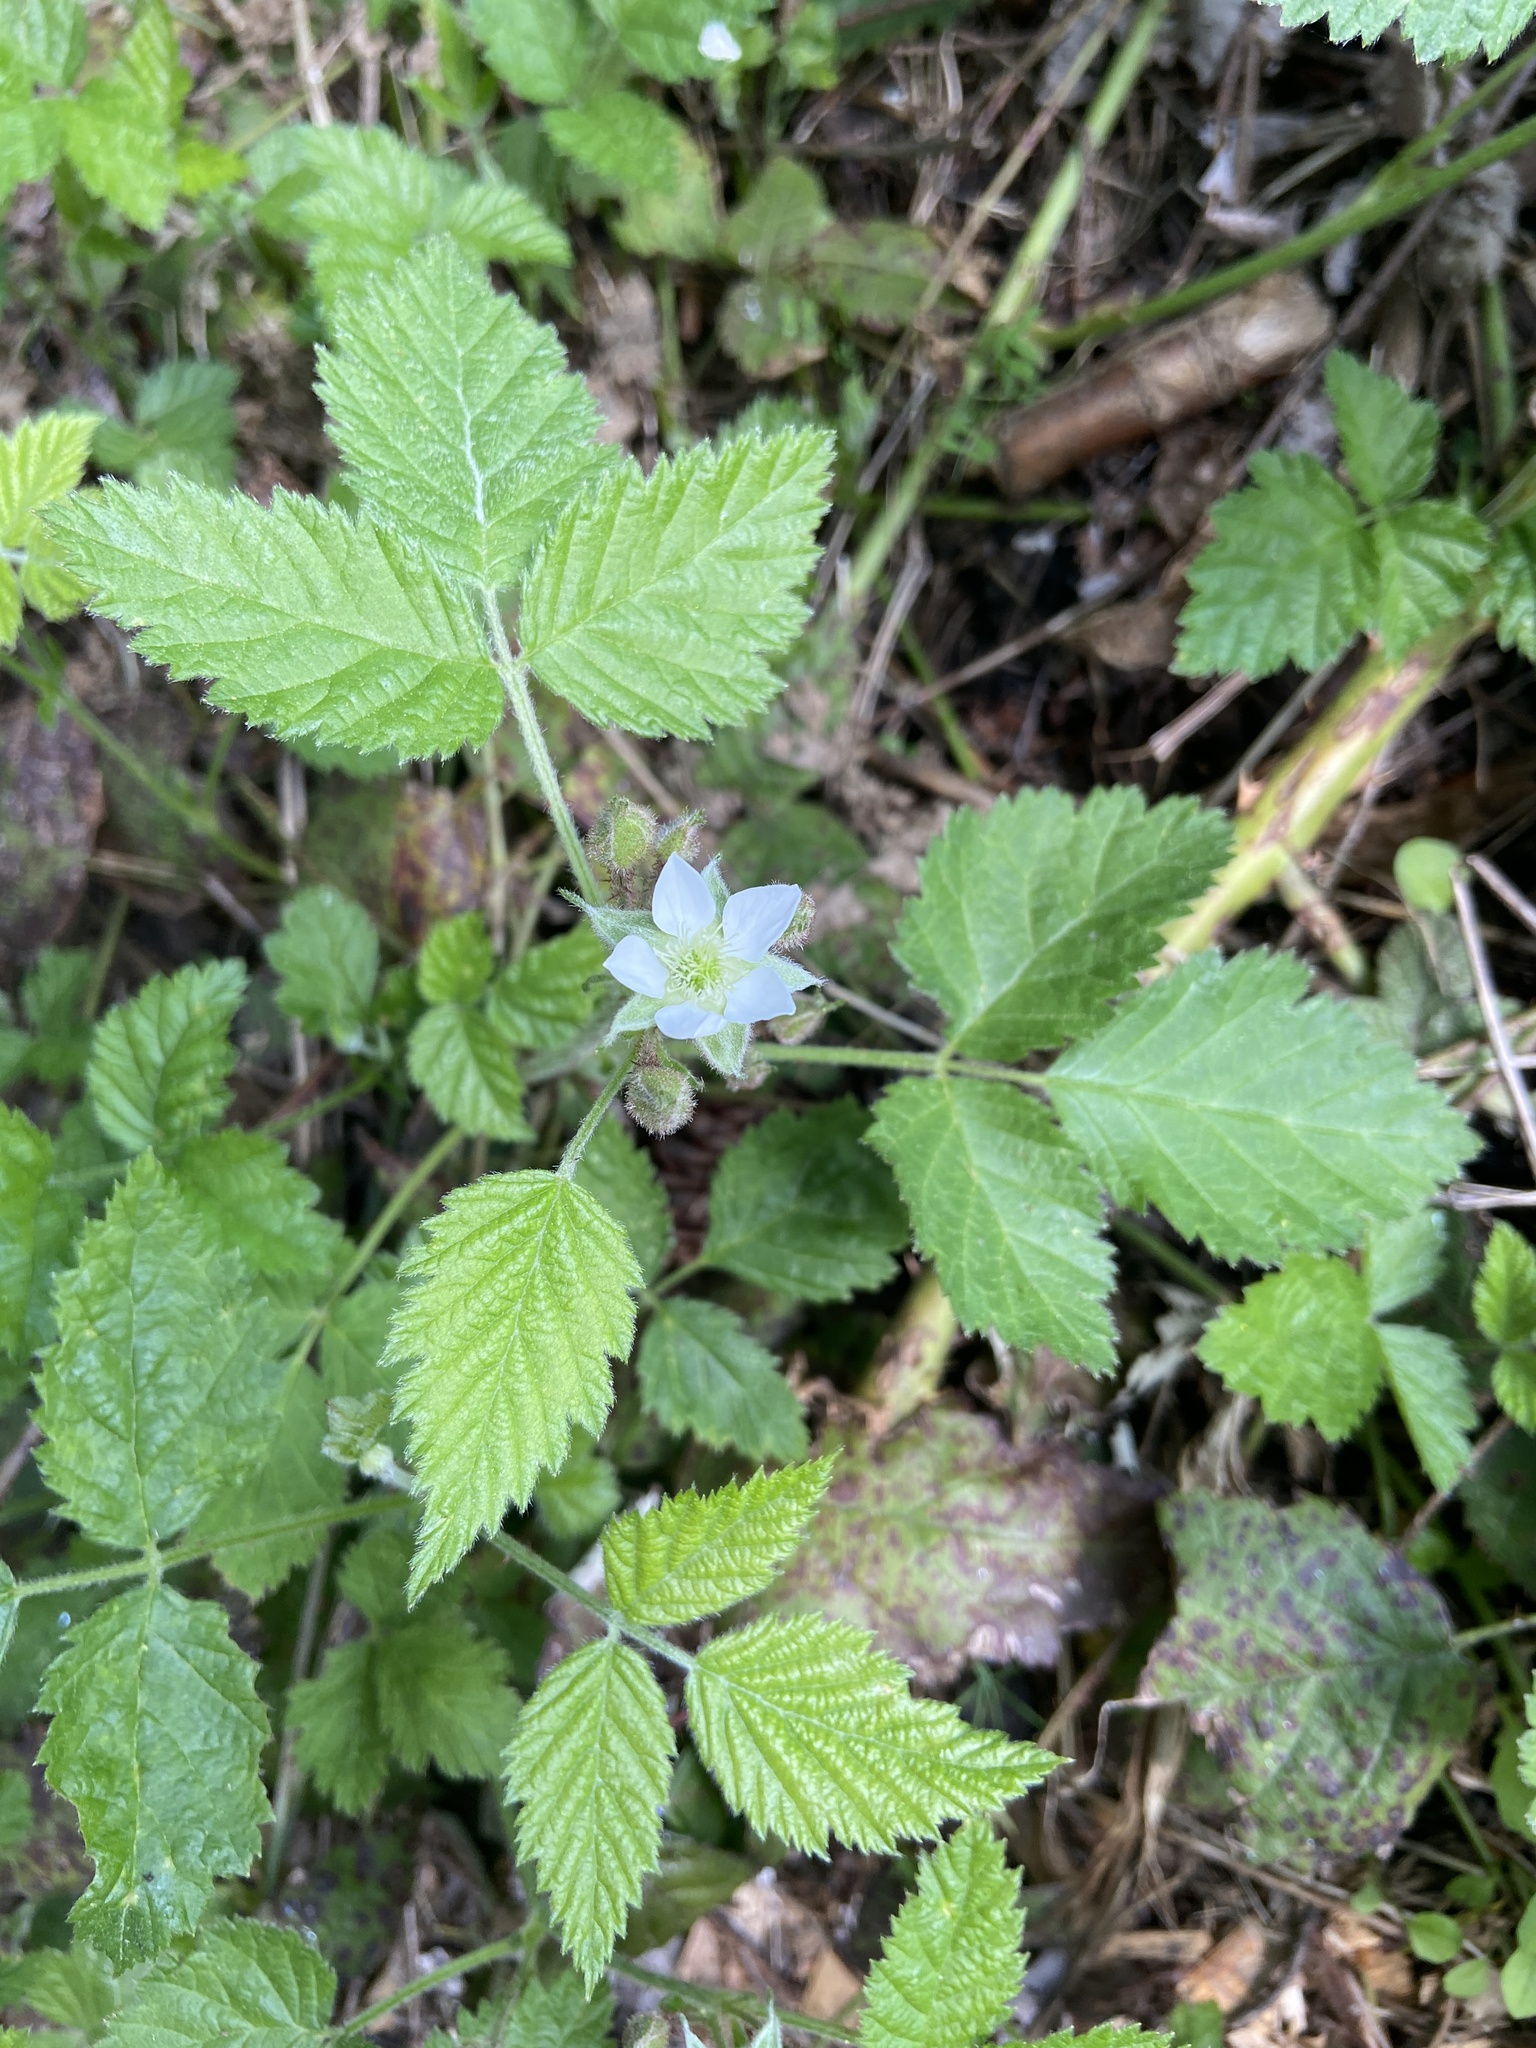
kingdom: Plantae
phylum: Tracheophyta
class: Magnoliopsida
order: Rosales
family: Rosaceae
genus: Rubus
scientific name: Rubus ursinus
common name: Pacific blackberry
